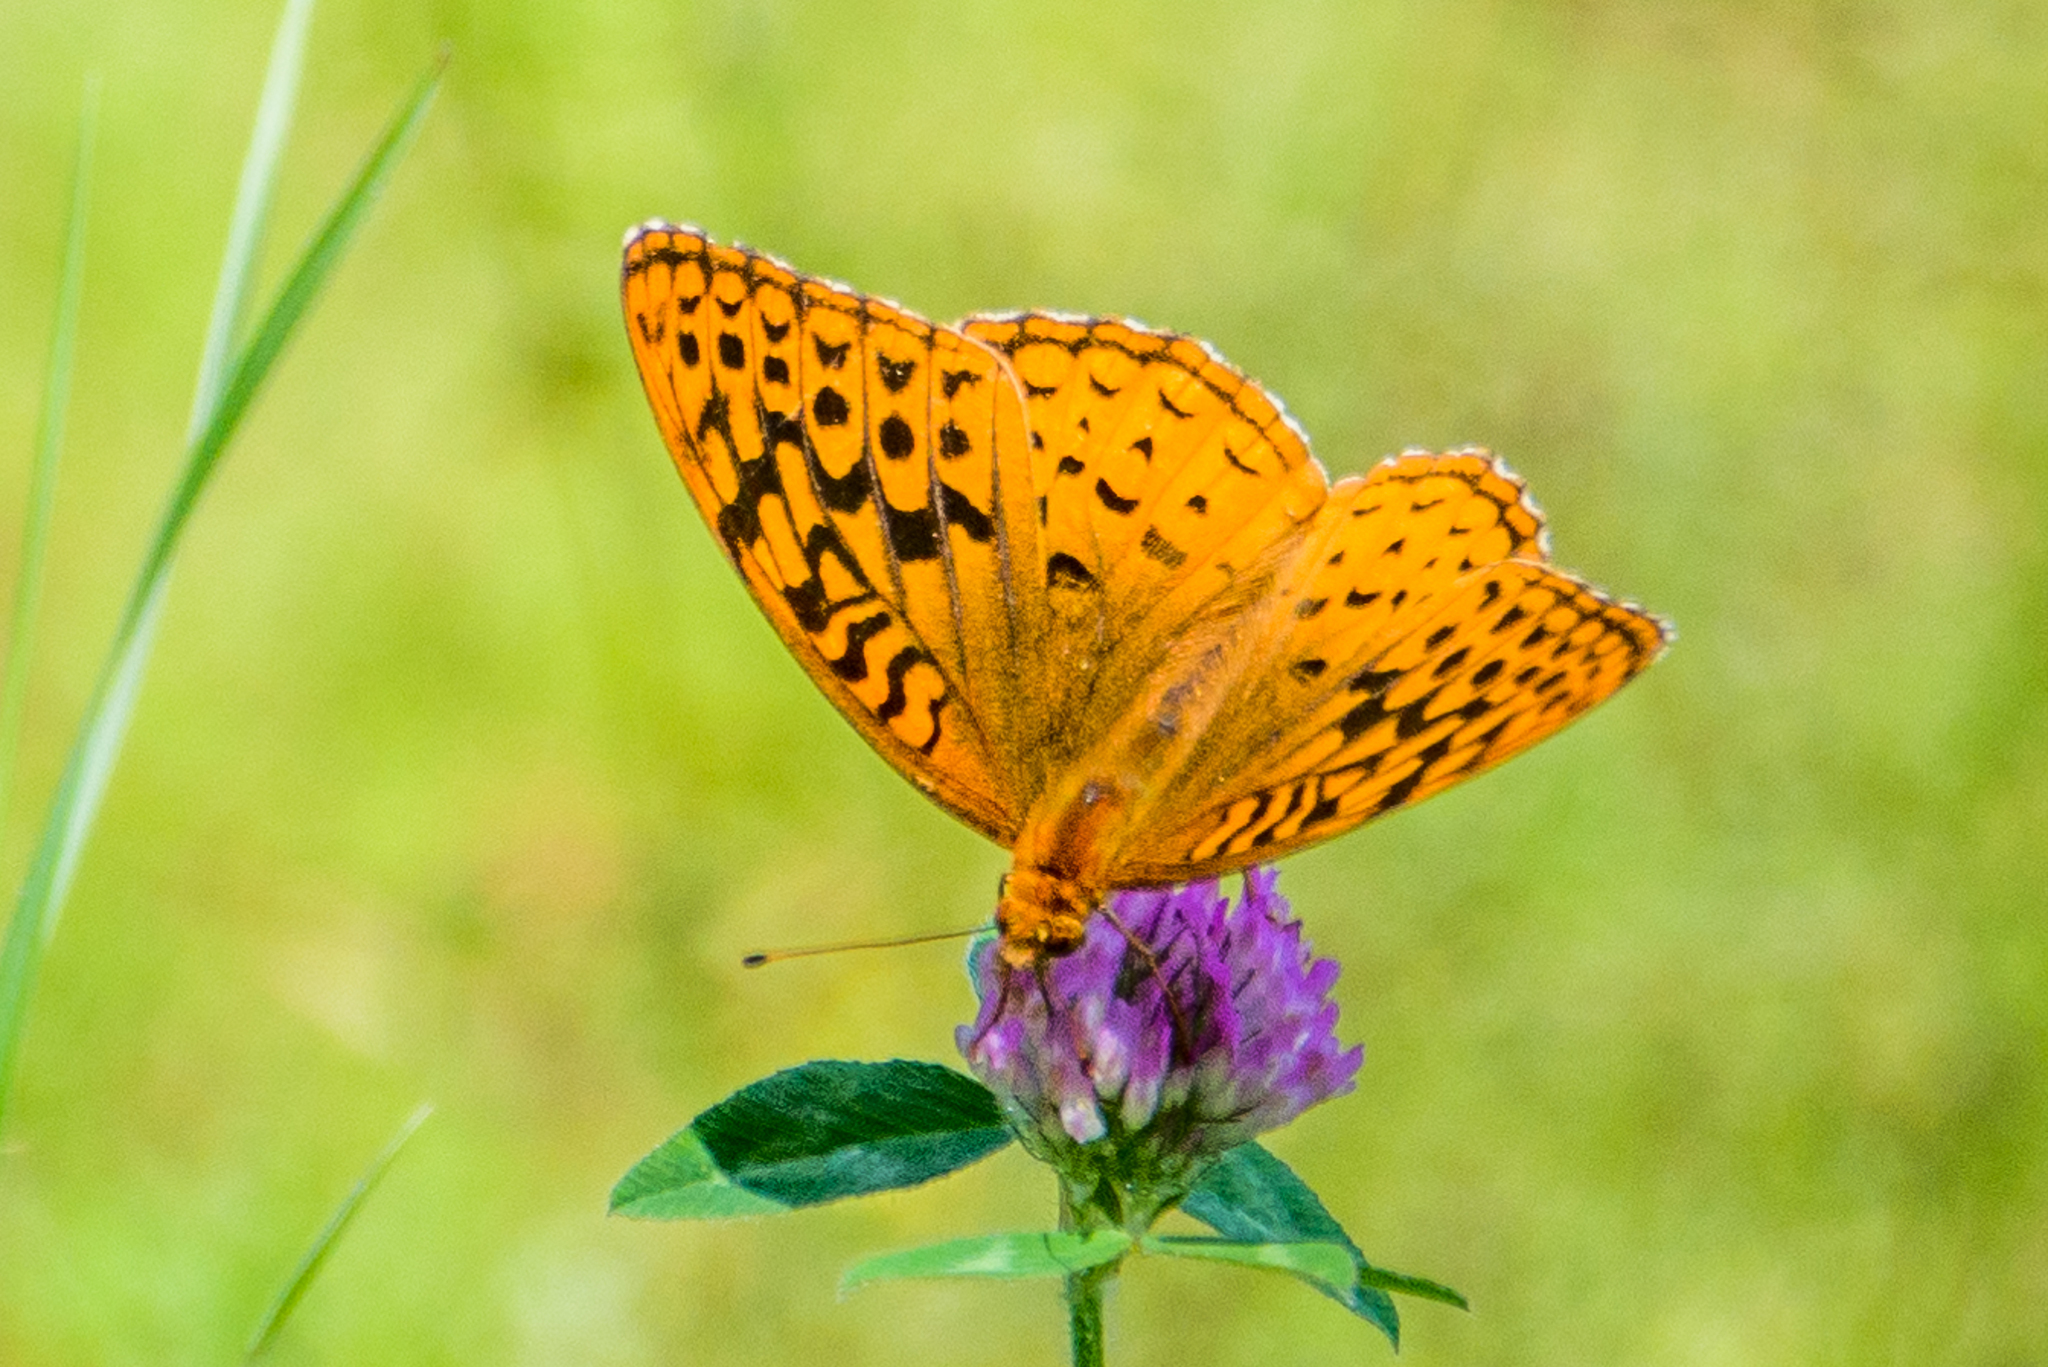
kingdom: Animalia
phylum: Arthropoda
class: Insecta
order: Lepidoptera
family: Nymphalidae
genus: Speyeria
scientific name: Speyeria cybele
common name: Great spangled fritillary
